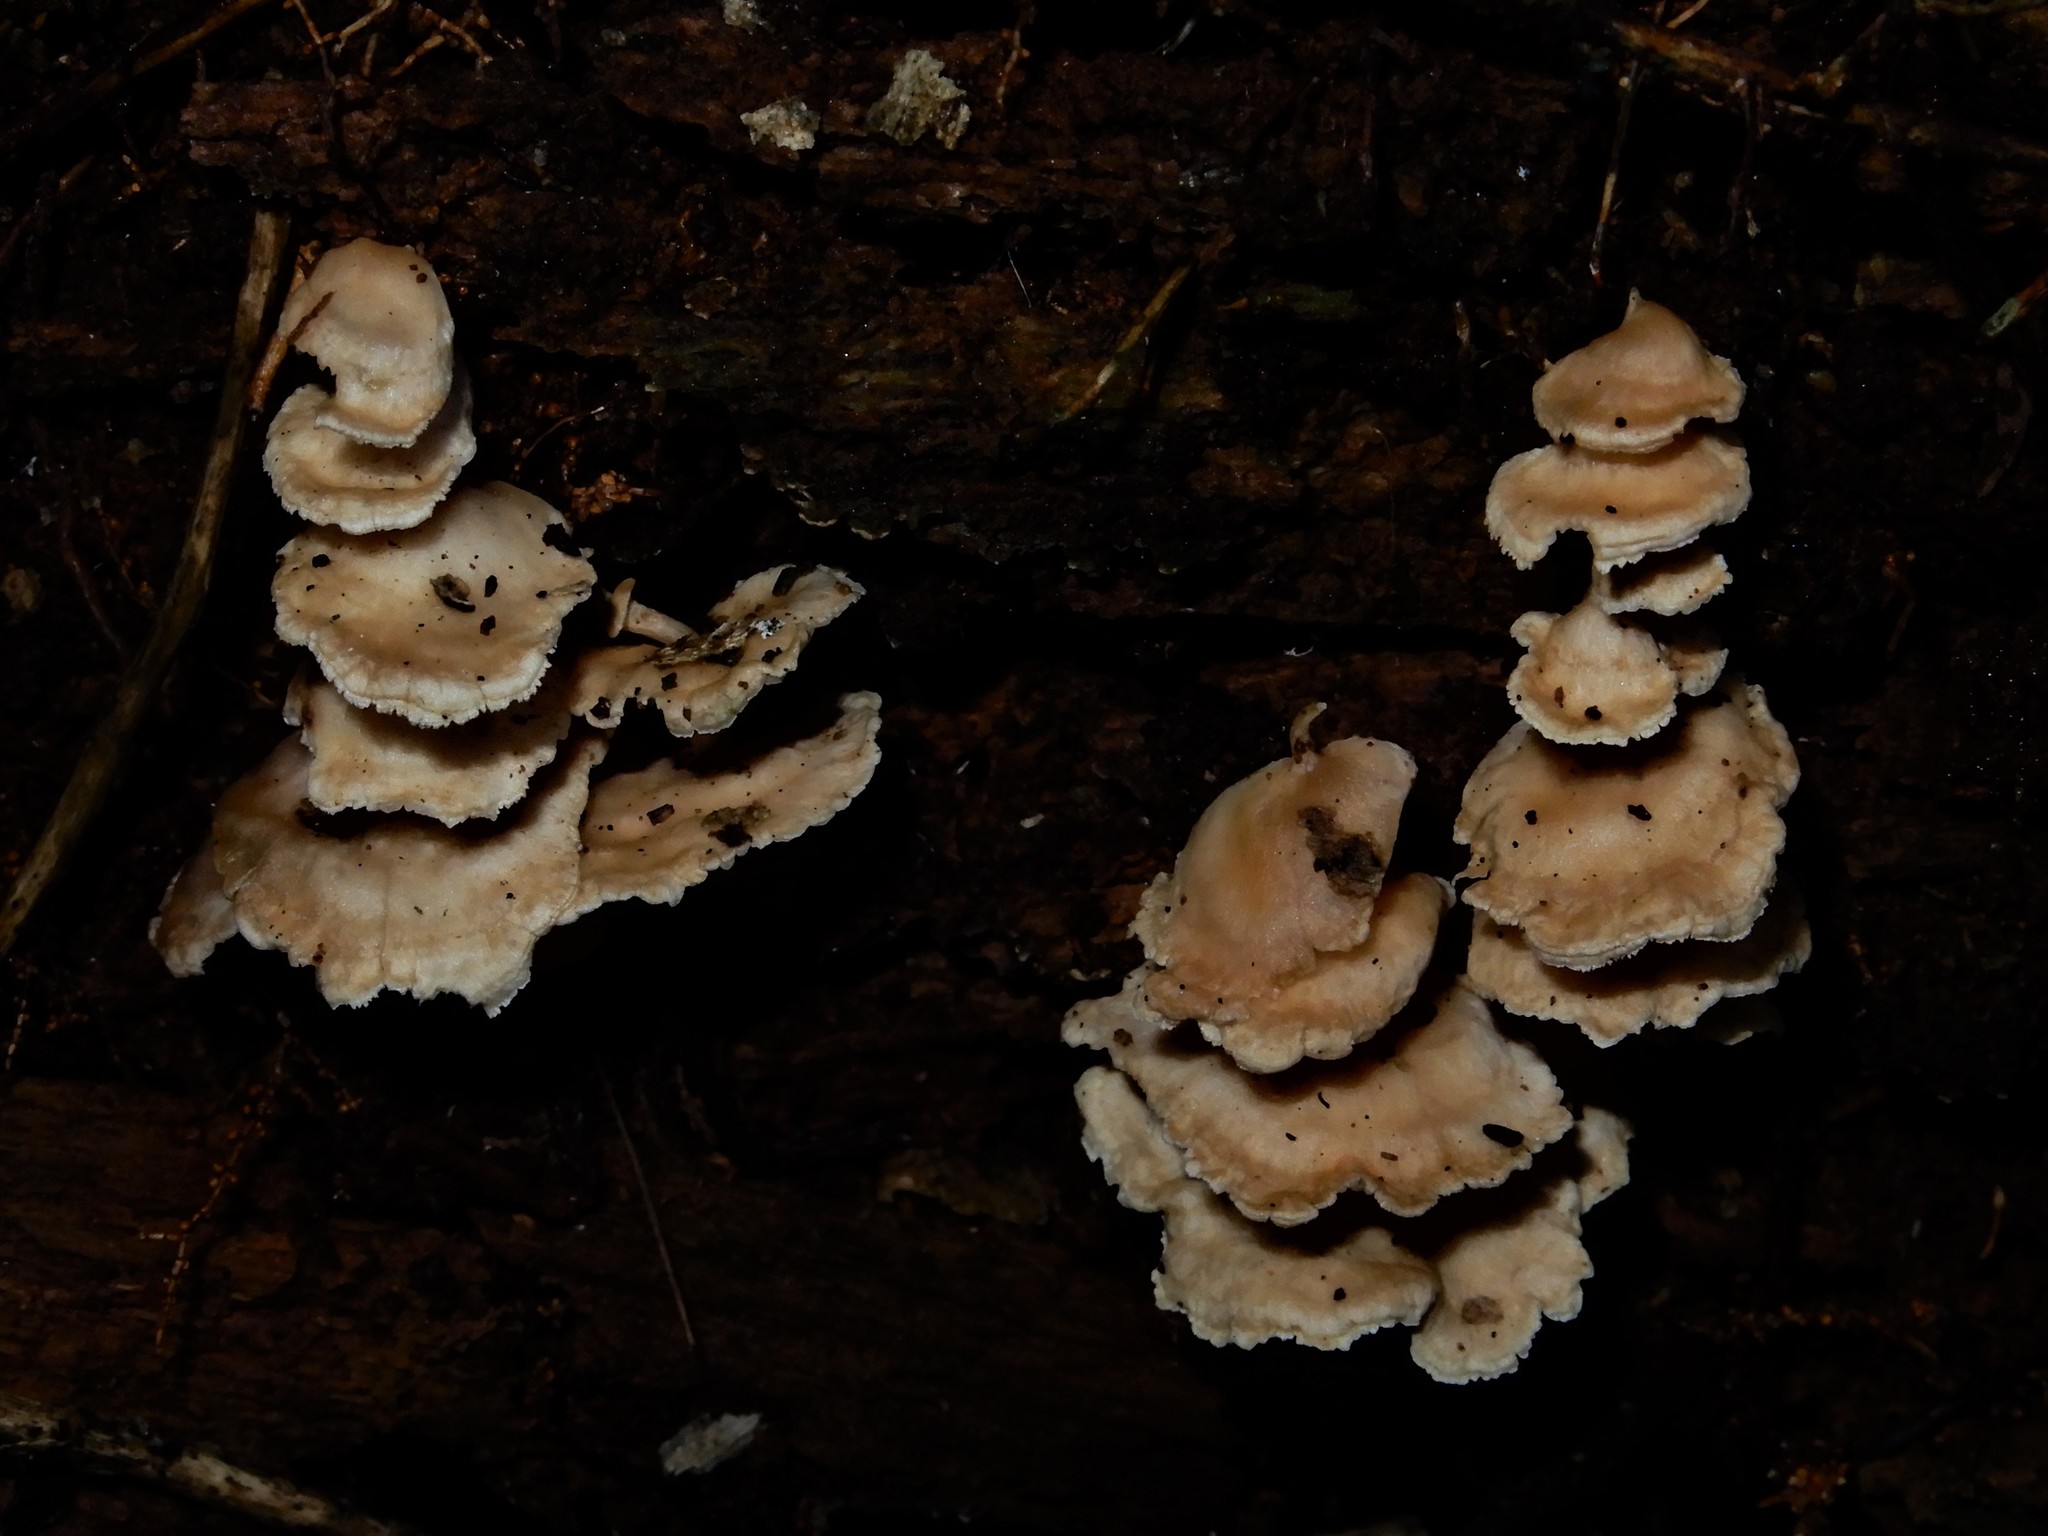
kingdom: Fungi
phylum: Basidiomycota
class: Agaricomycetes
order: Amylocorticiales
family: Amylocorticiaceae
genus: Podoserpula
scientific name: Podoserpula
